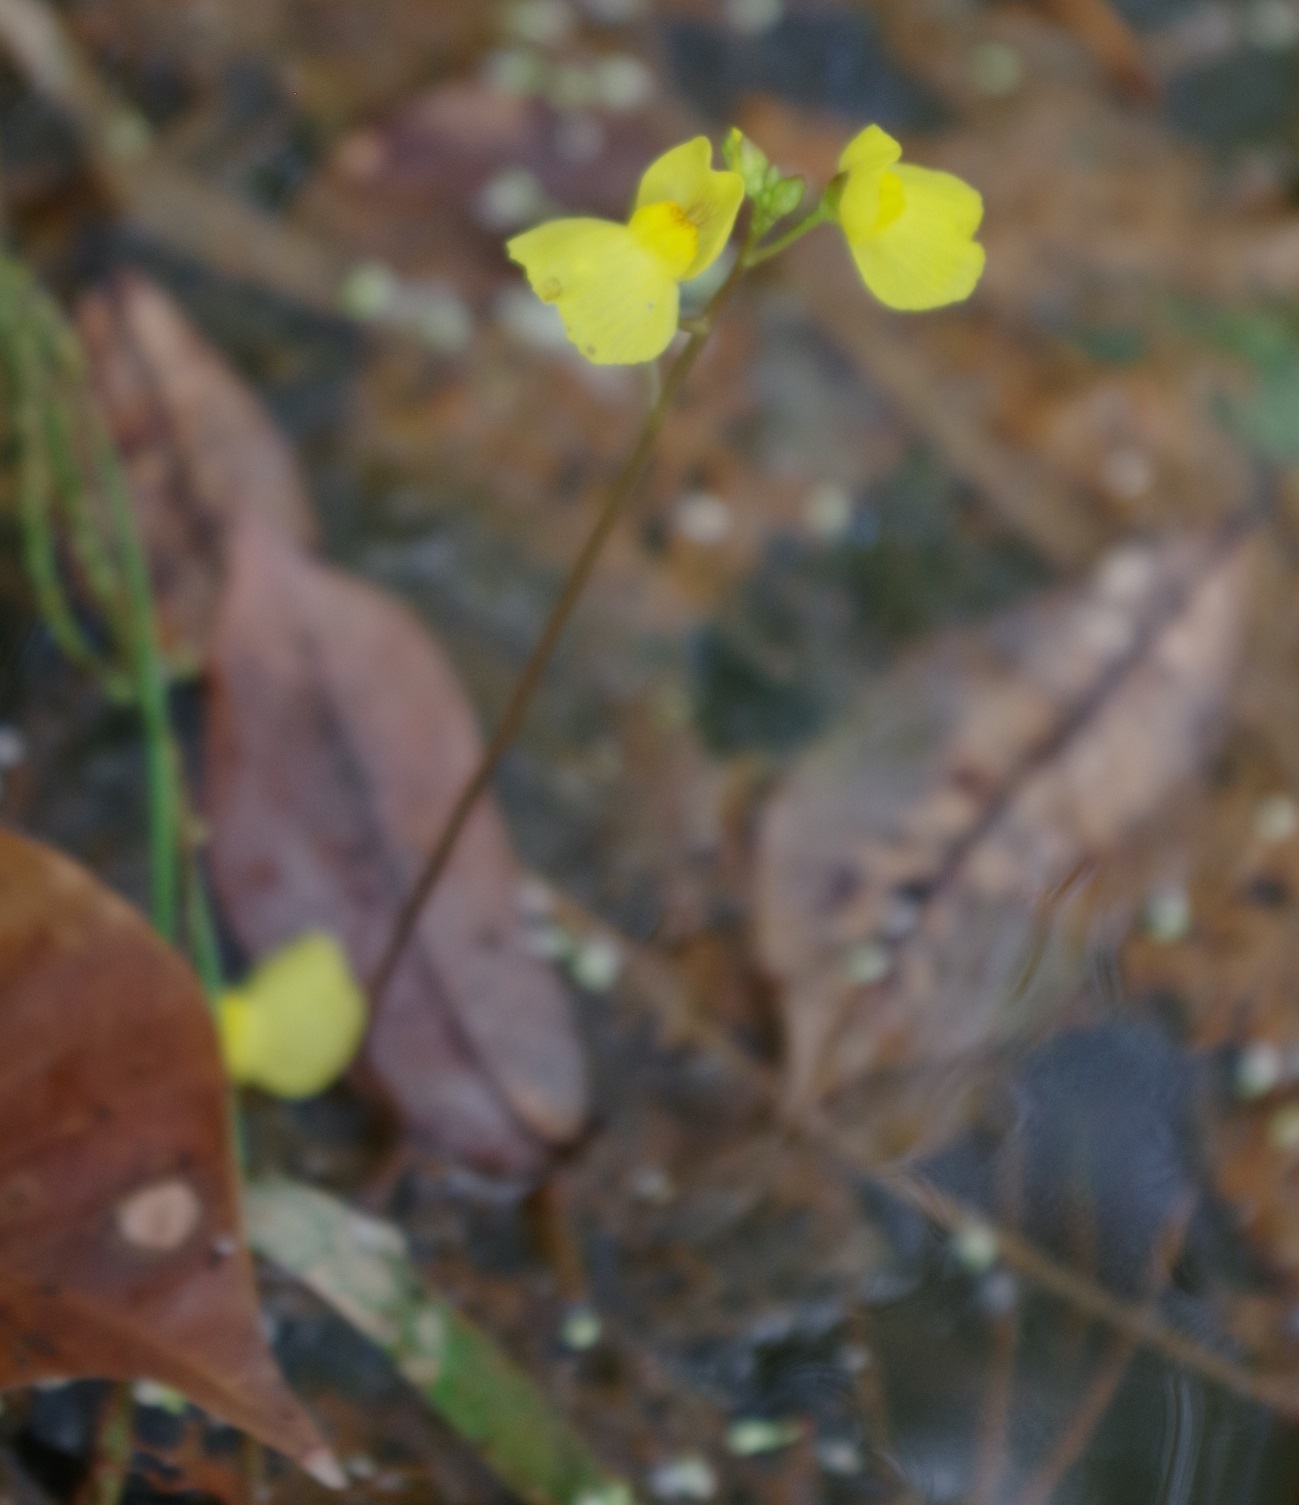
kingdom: Plantae
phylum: Tracheophyta
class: Magnoliopsida
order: Lamiales
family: Lentibulariaceae
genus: Utricularia
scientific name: Utricularia aurea
